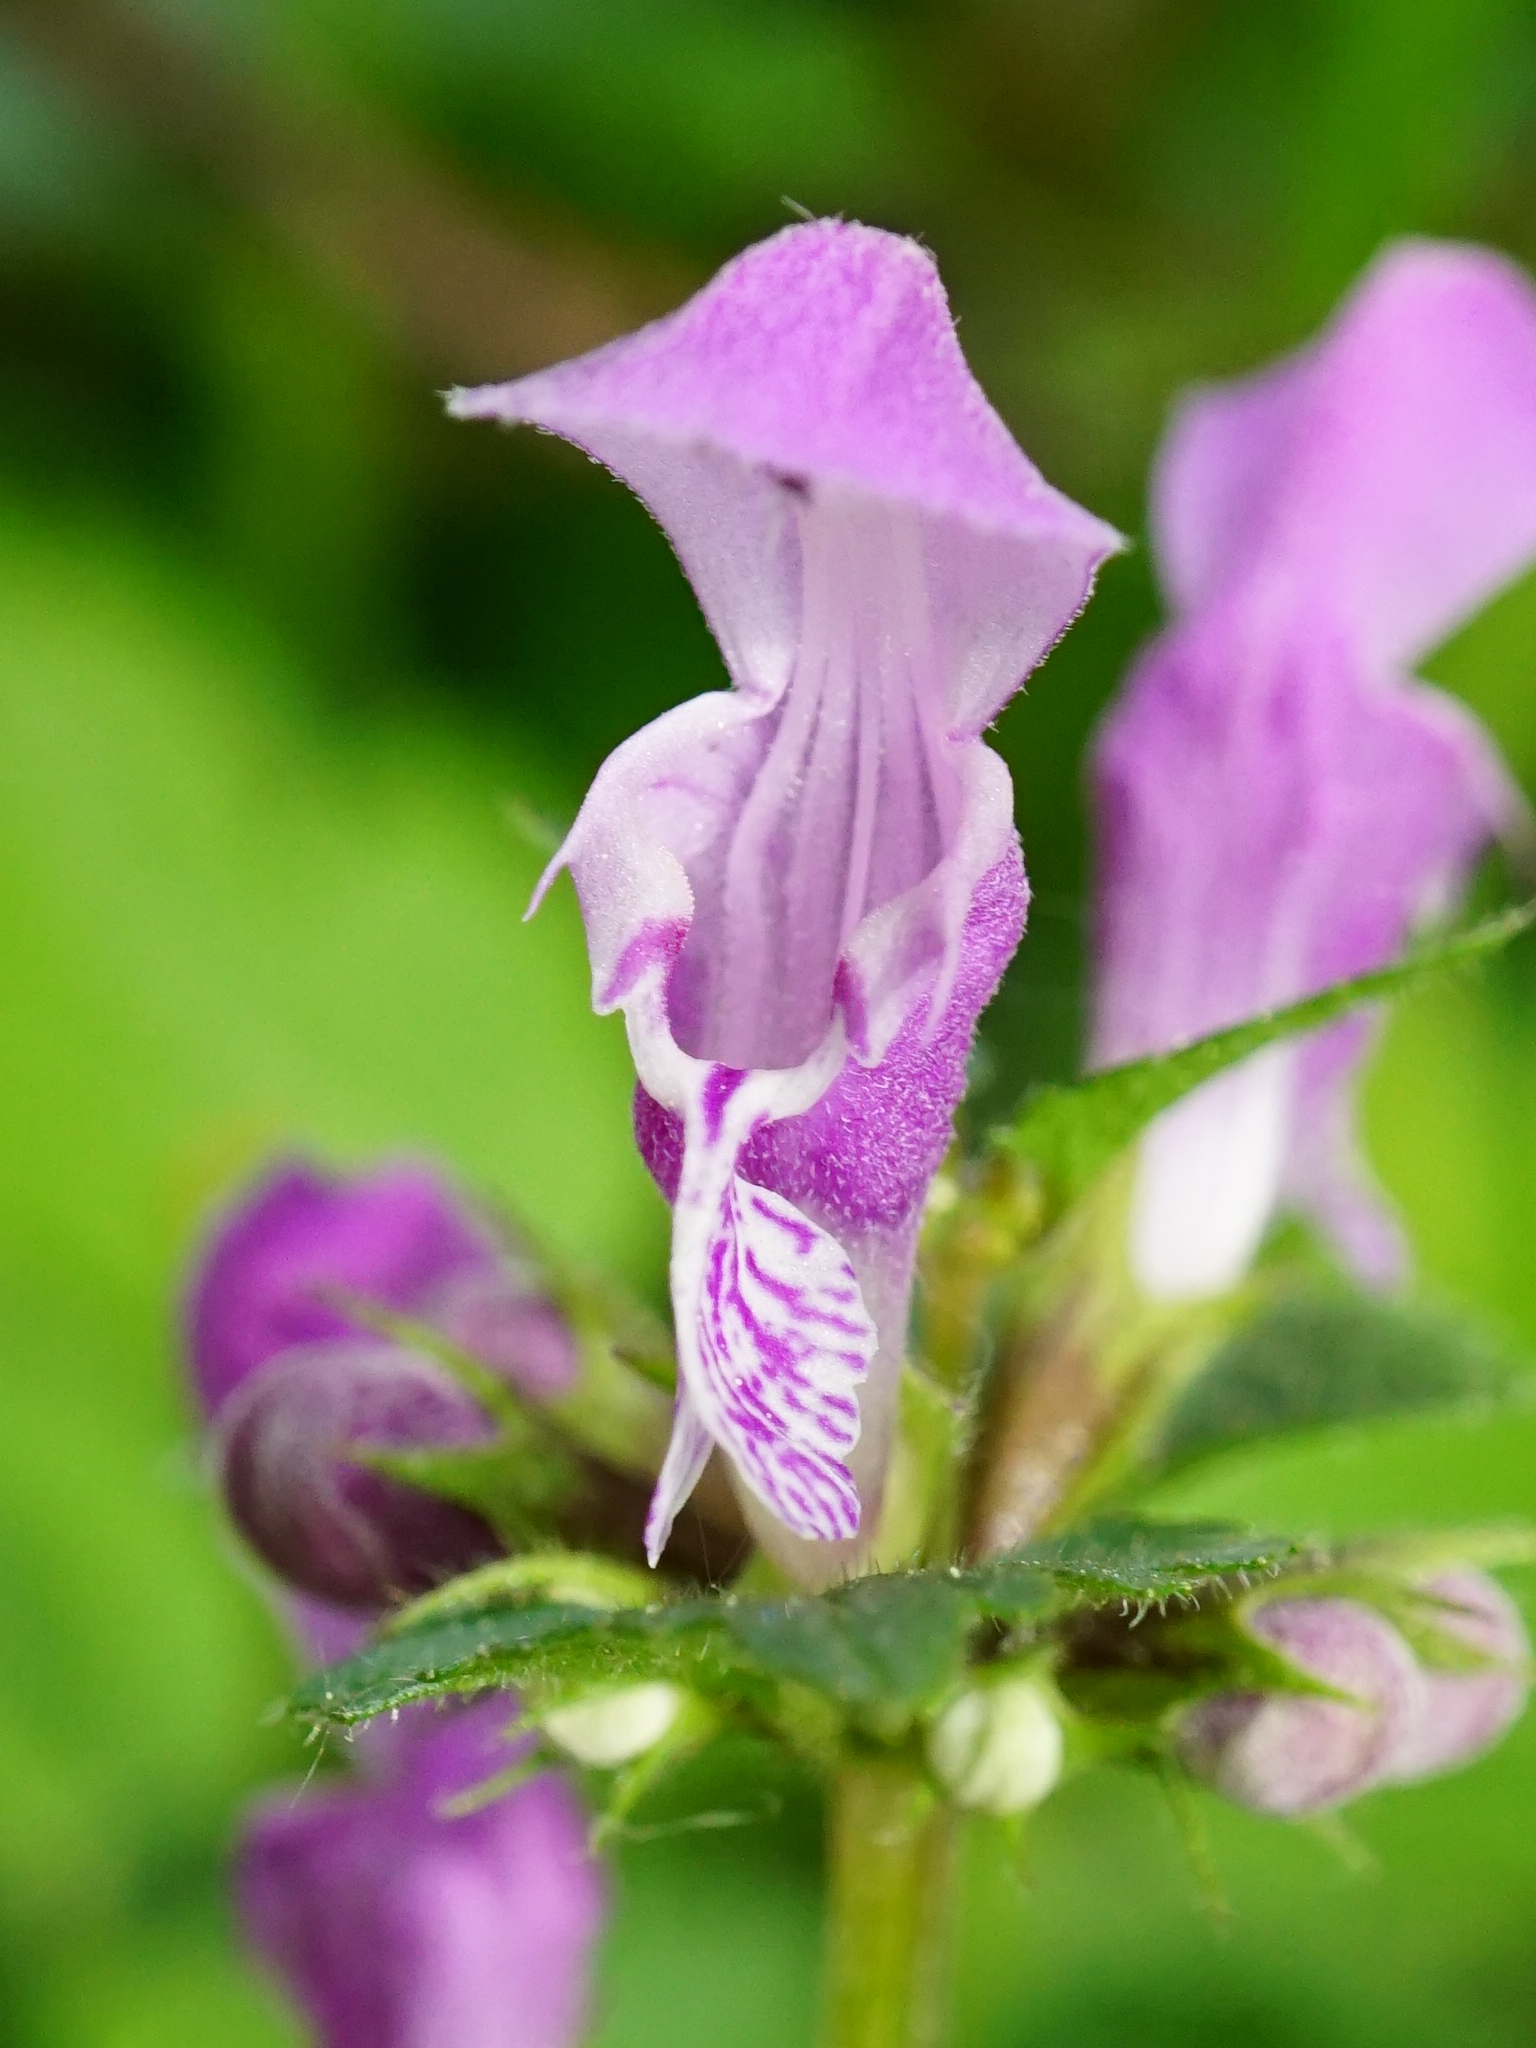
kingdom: Plantae
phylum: Tracheophyta
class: Magnoliopsida
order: Lamiales
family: Lamiaceae
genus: Lamium
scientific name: Lamium maculatum
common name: Spotted dead-nettle
